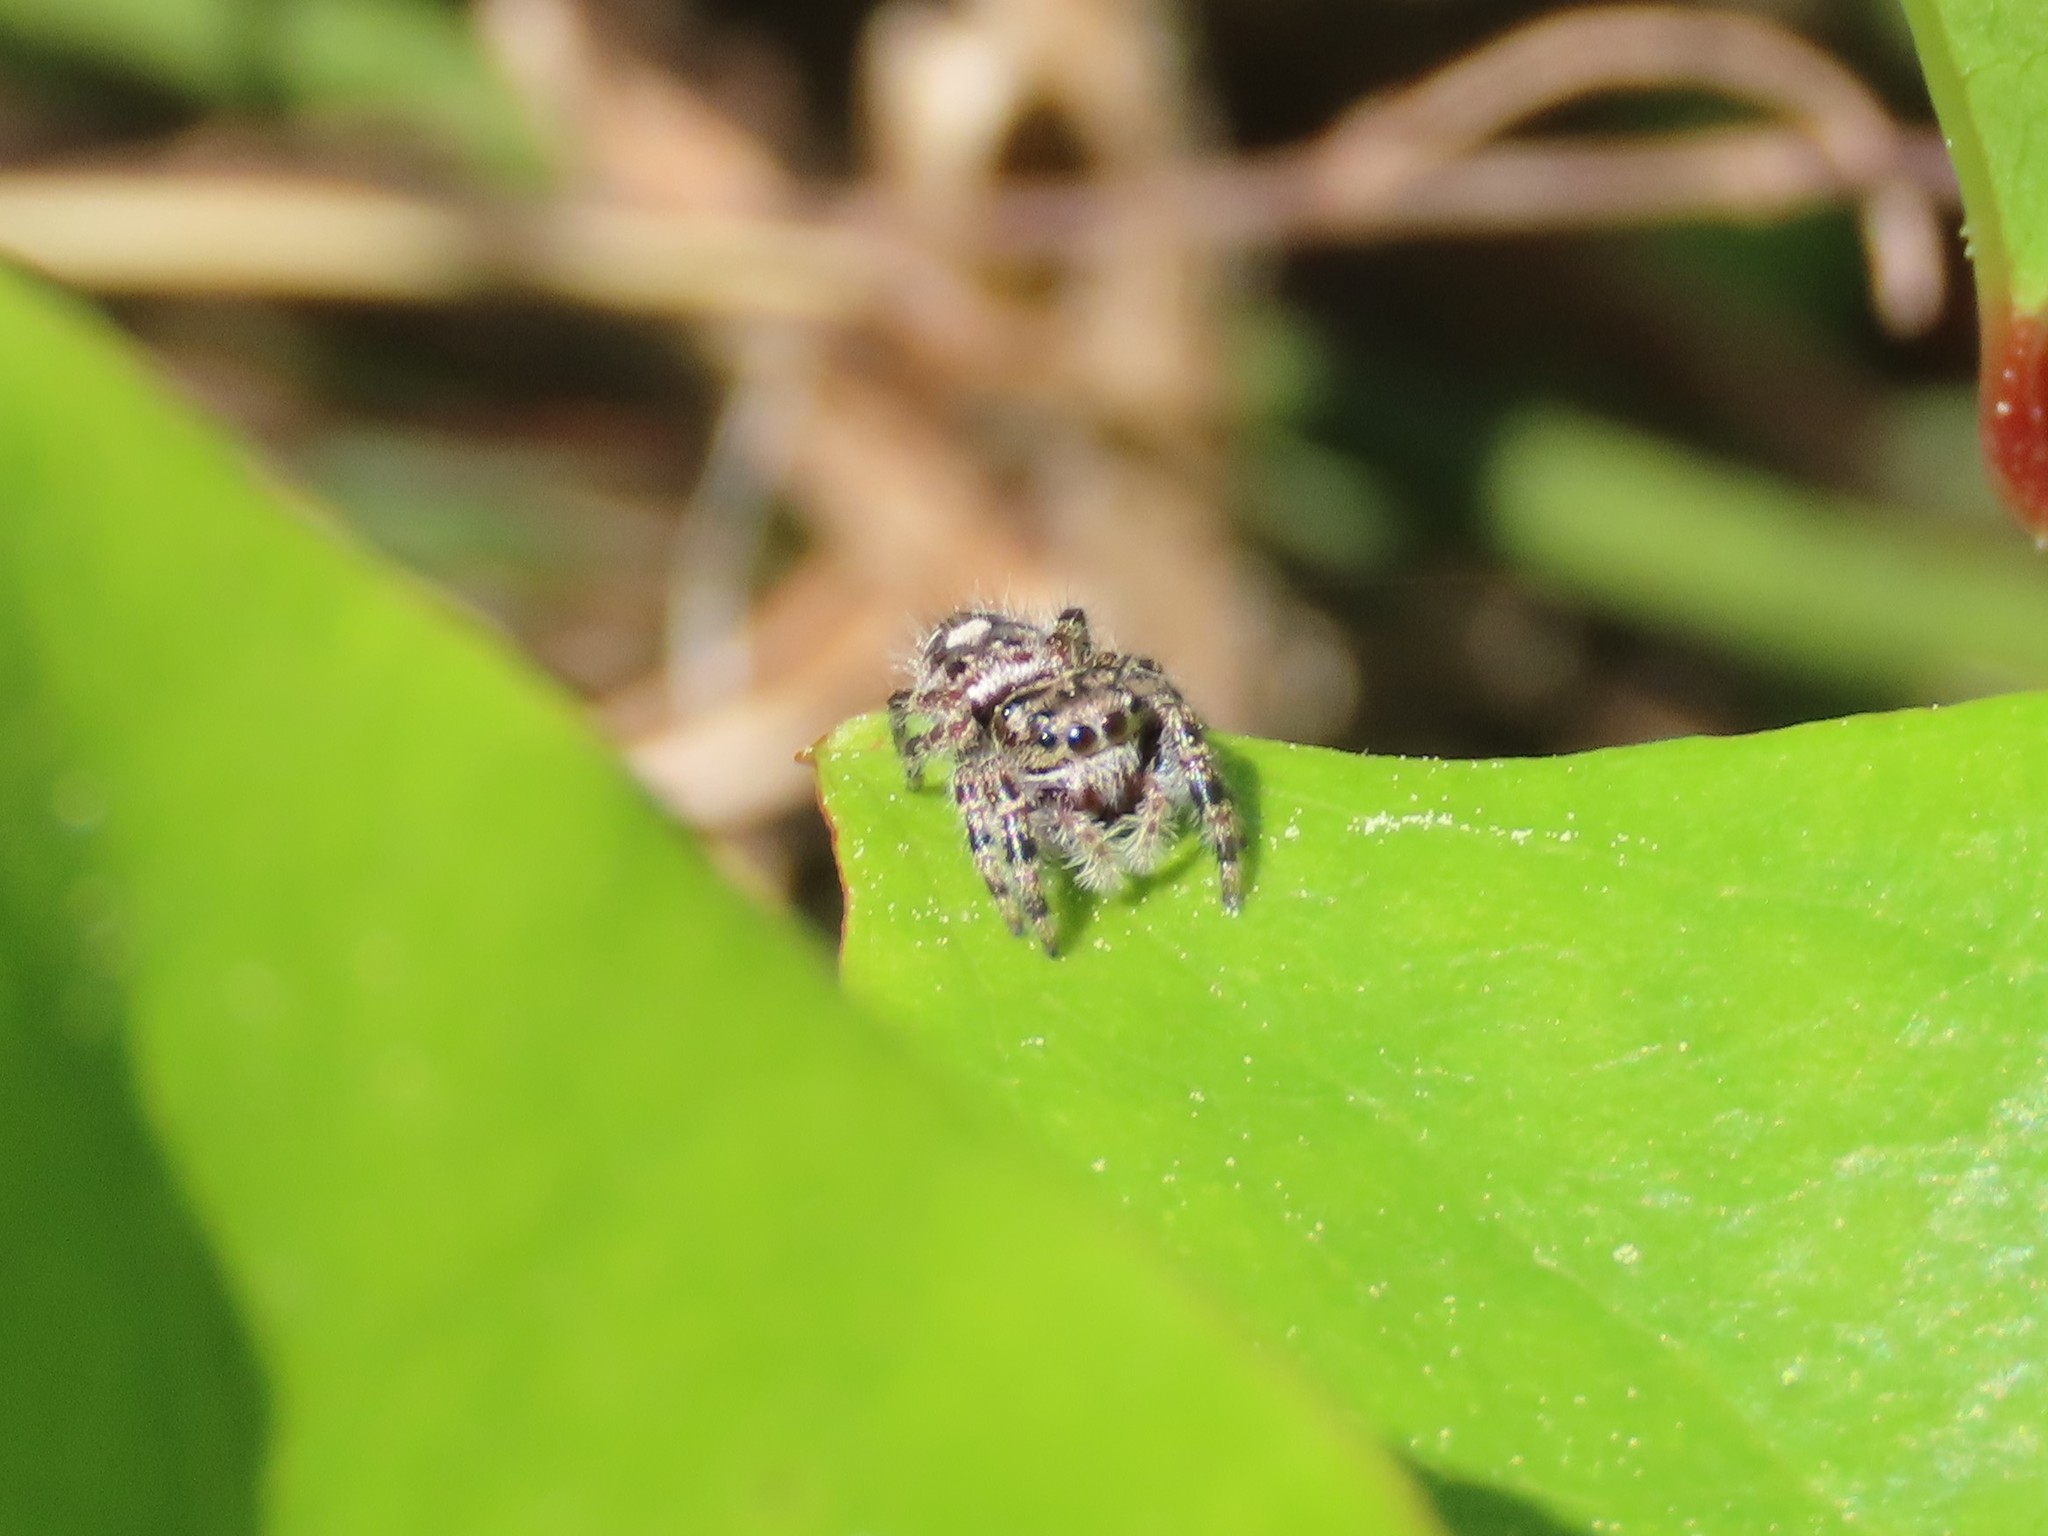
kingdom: Animalia
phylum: Arthropoda
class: Arachnida
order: Araneae
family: Salticidae
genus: Phidippus
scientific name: Phidippus putnami
